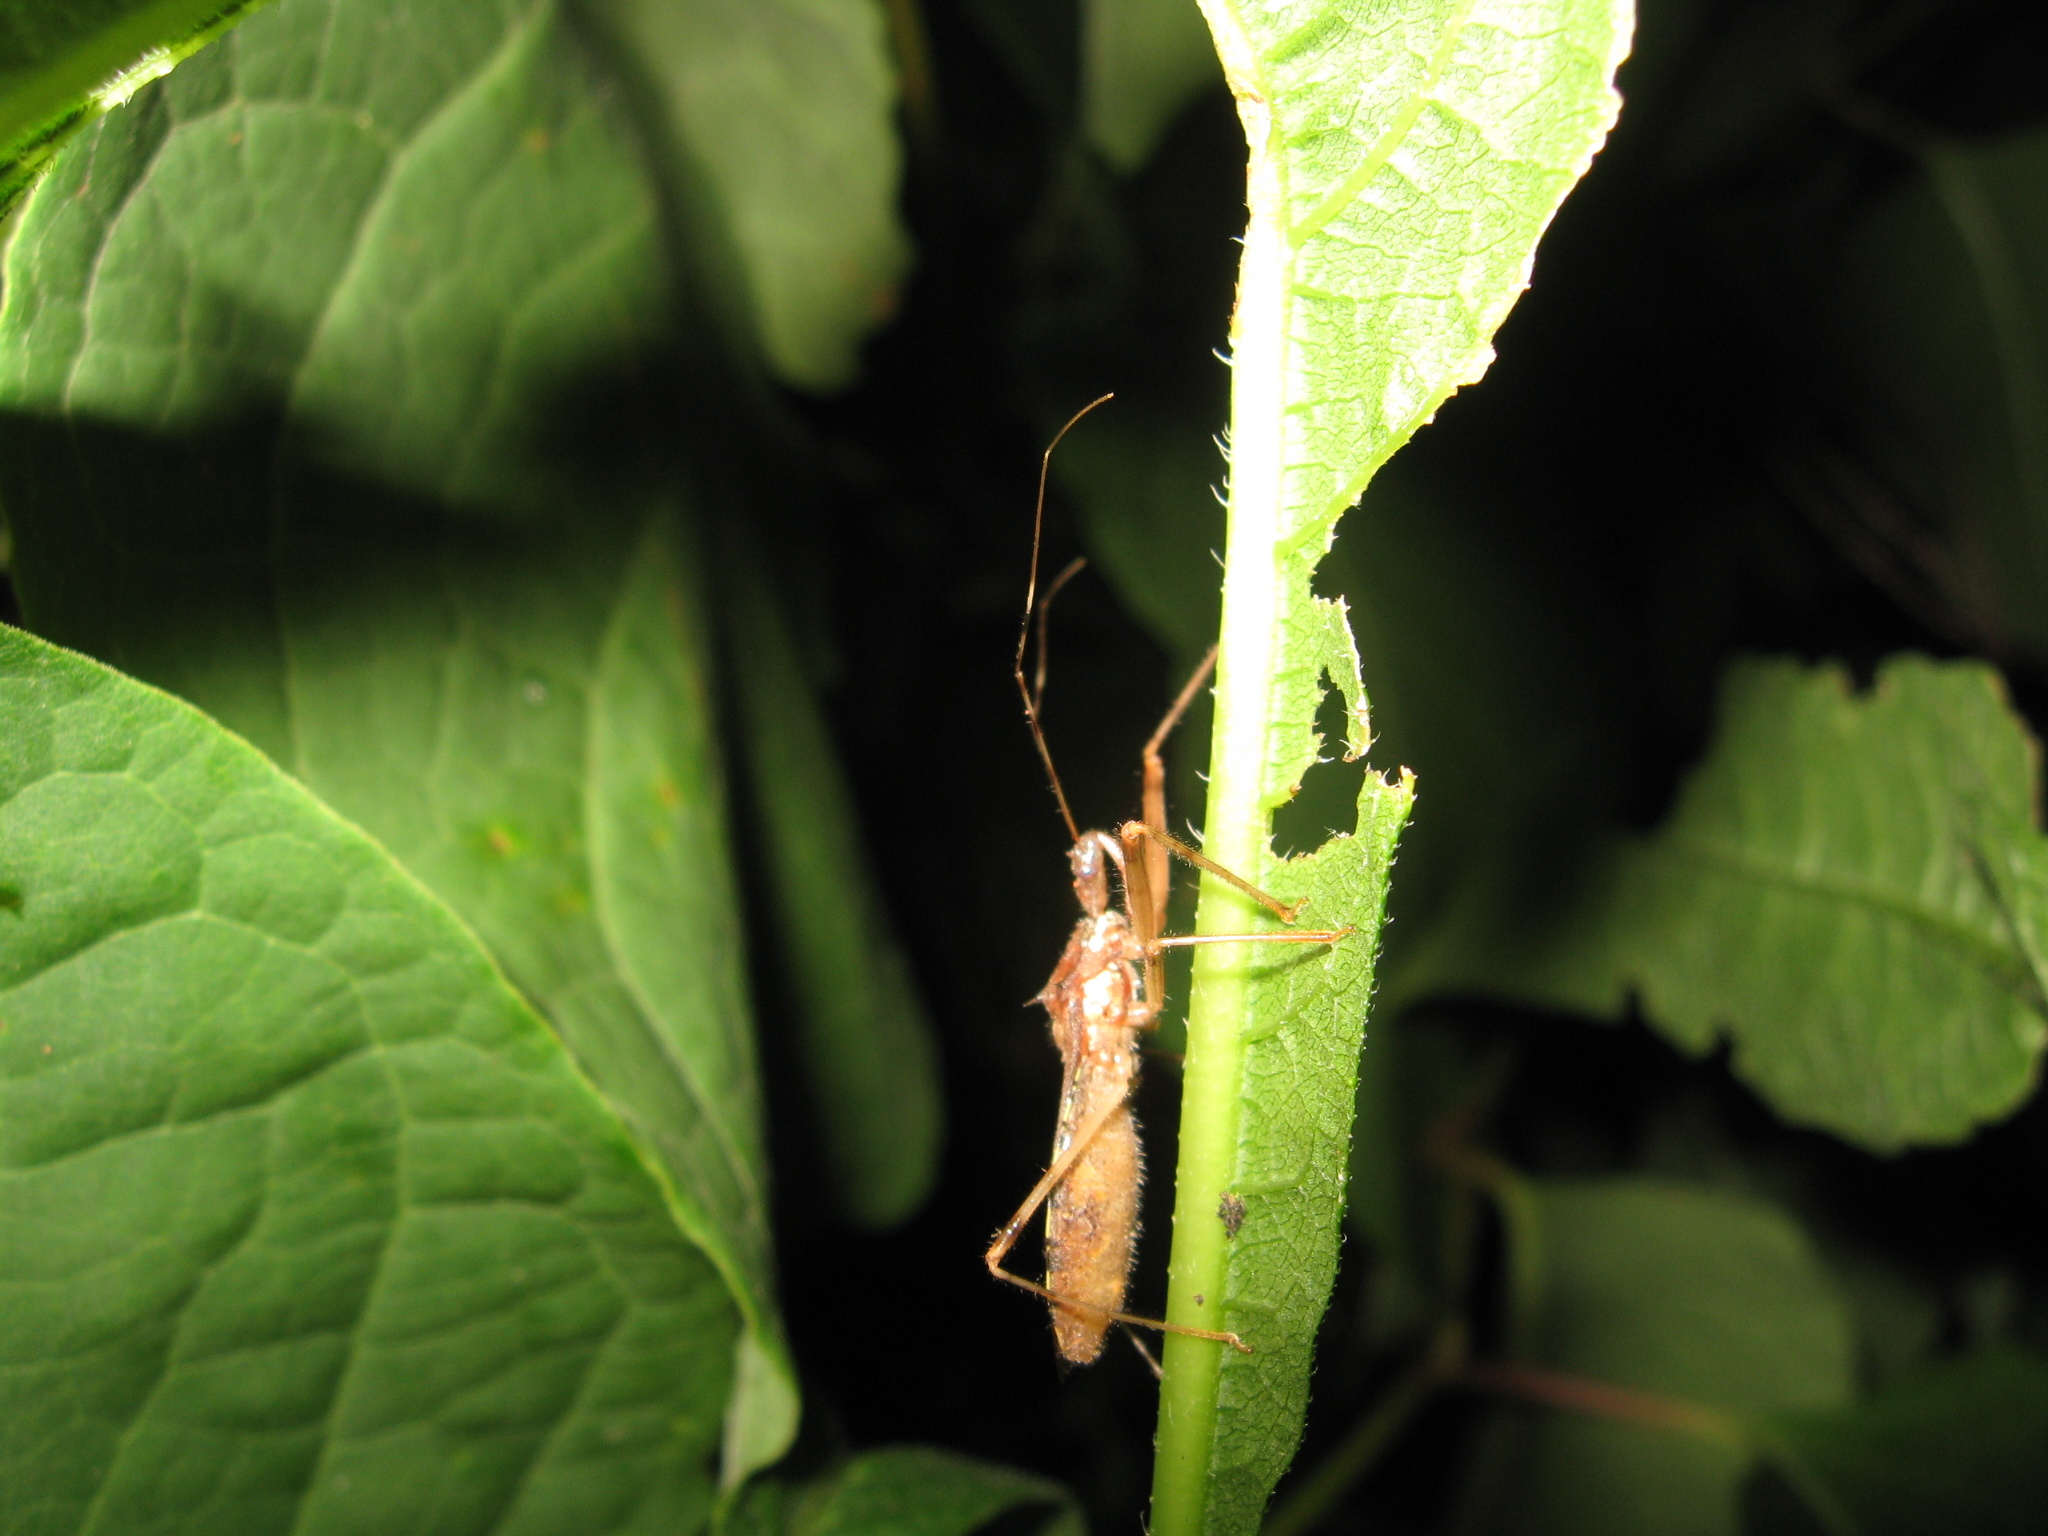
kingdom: Animalia
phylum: Arthropoda
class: Insecta
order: Hemiptera
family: Reduviidae
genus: Rocconota
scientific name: Rocconota annulicornis
